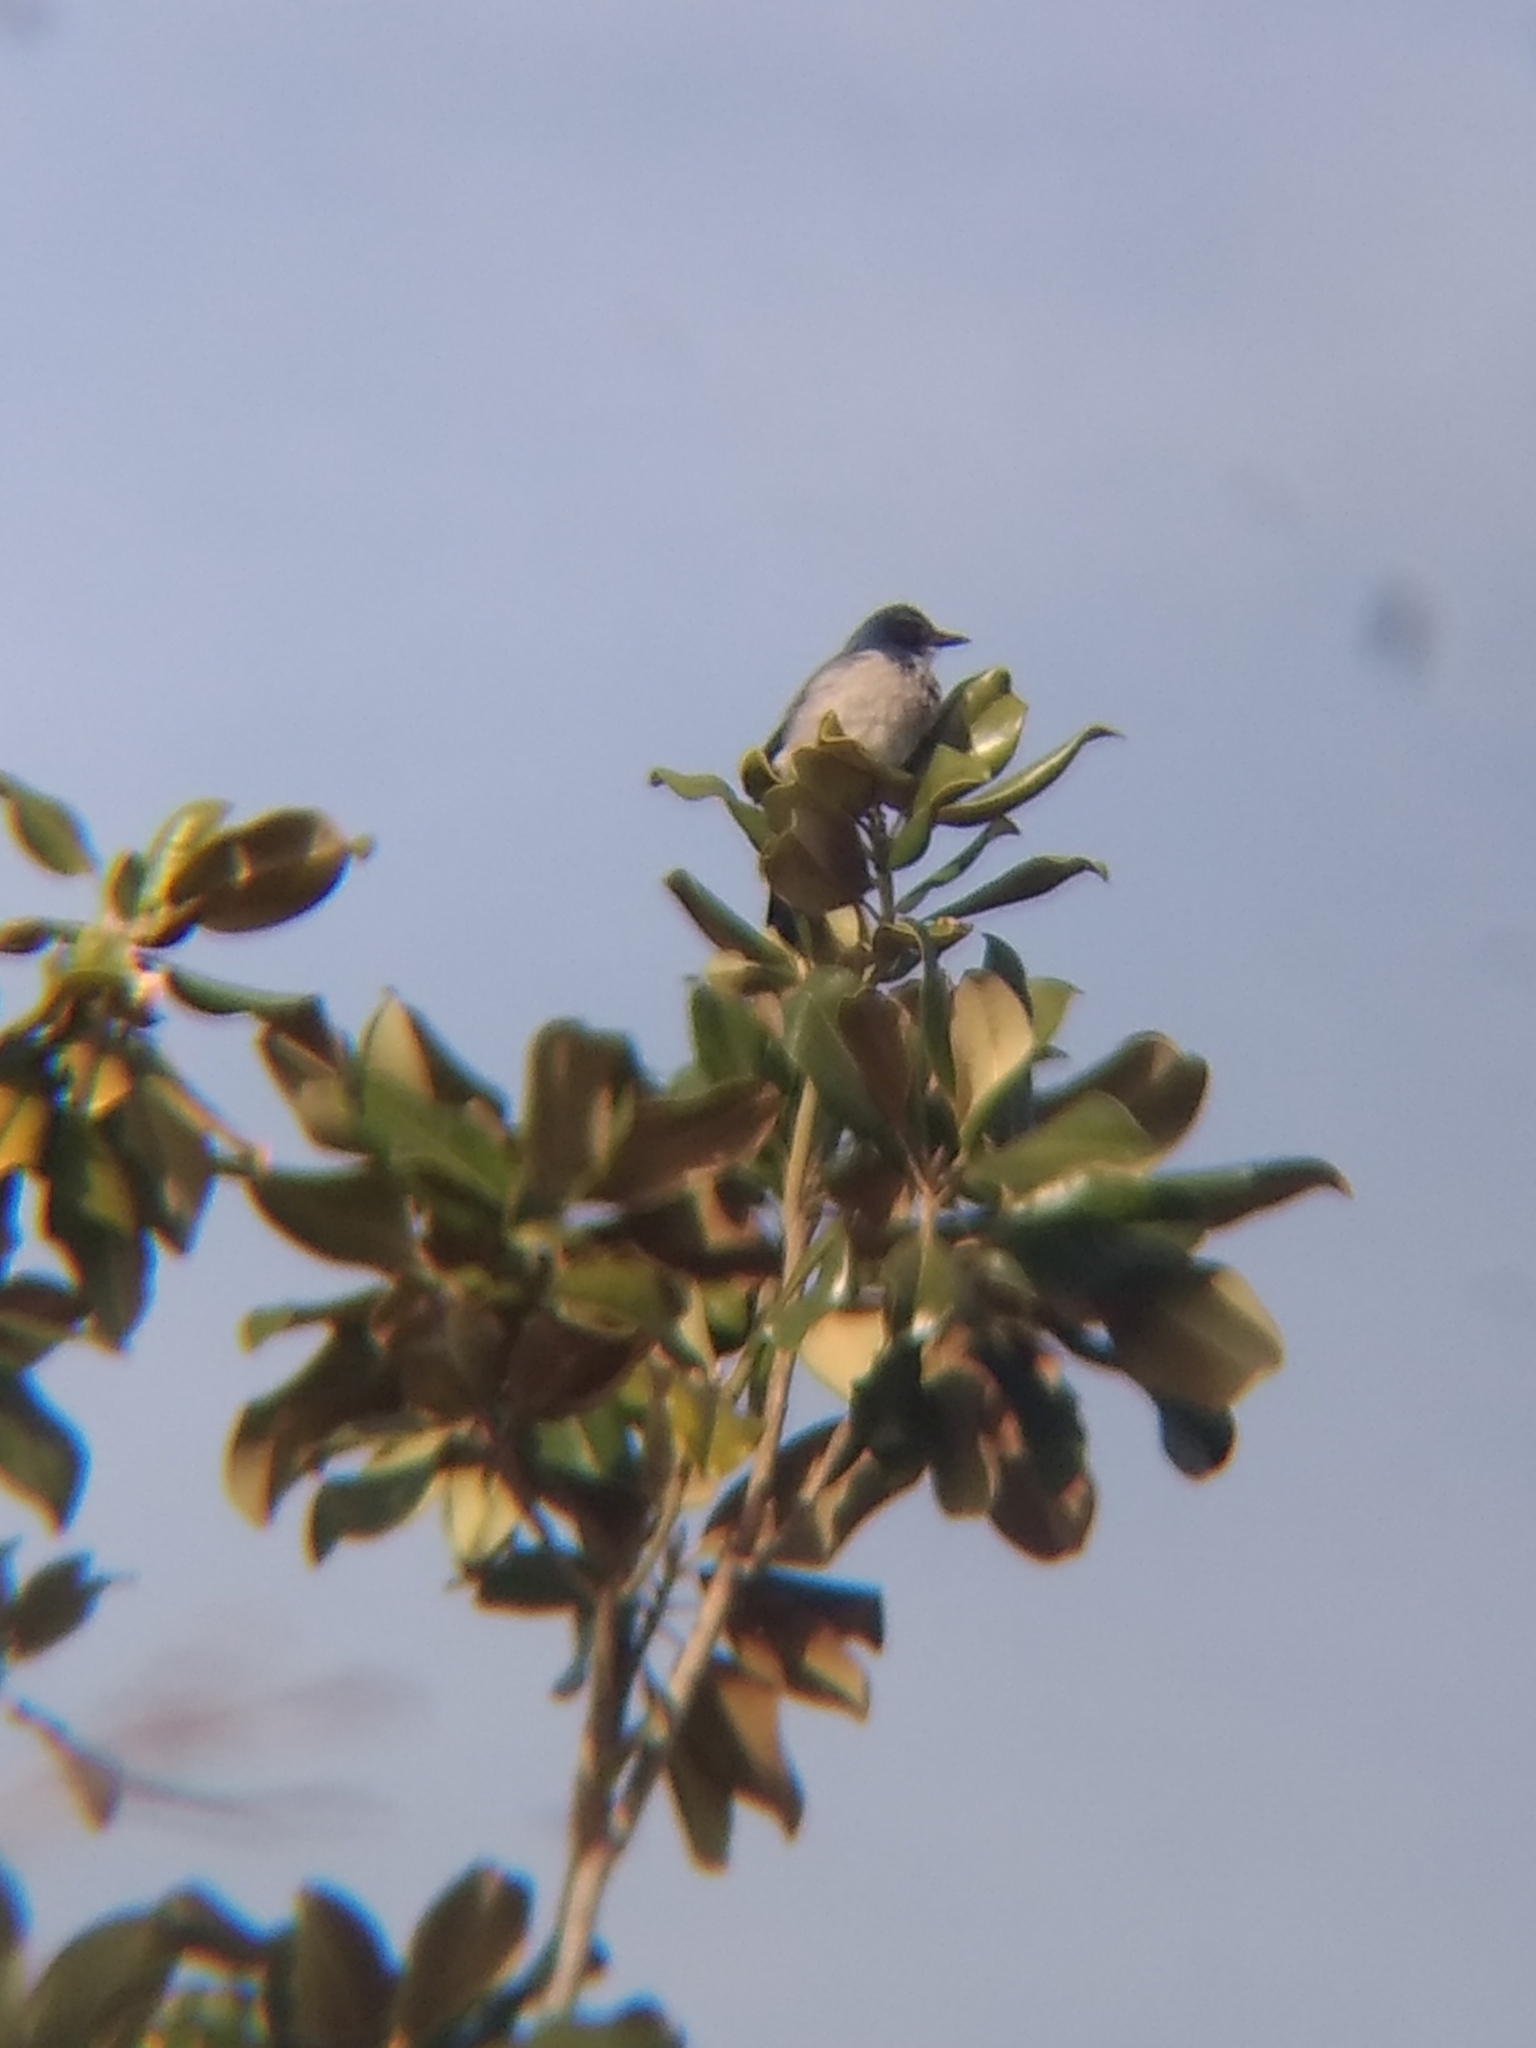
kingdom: Animalia
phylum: Chordata
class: Aves
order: Passeriformes
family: Corvidae
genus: Aphelocoma
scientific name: Aphelocoma californica
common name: California scrub-jay
